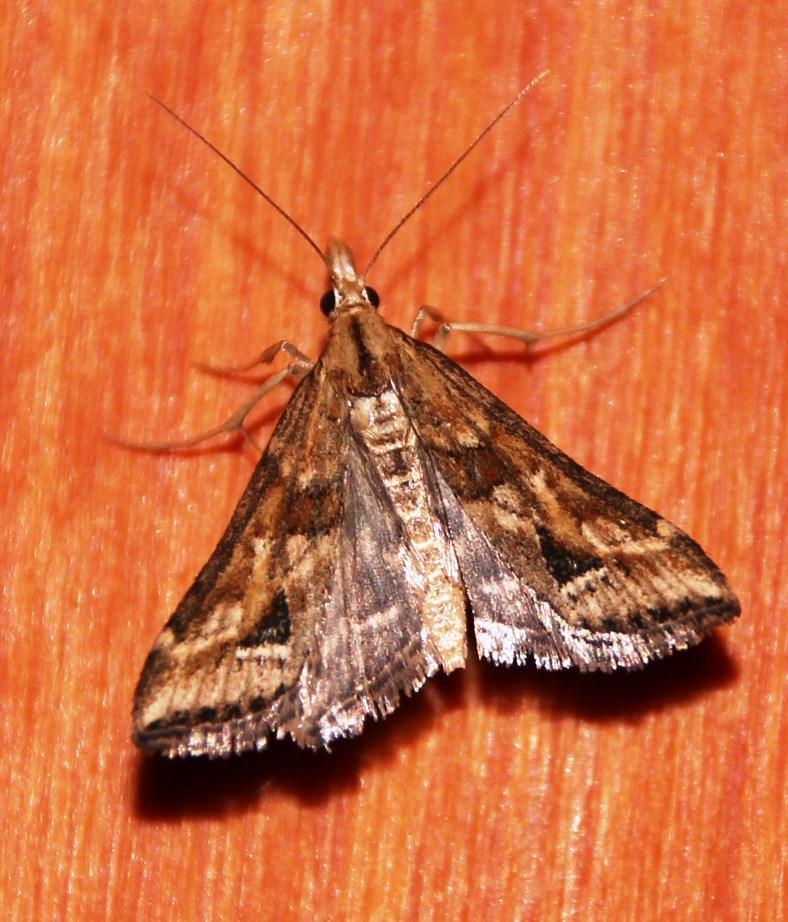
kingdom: Animalia
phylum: Arthropoda
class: Insecta
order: Lepidoptera
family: Crambidae
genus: Diasemia
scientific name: Diasemia monostigma
